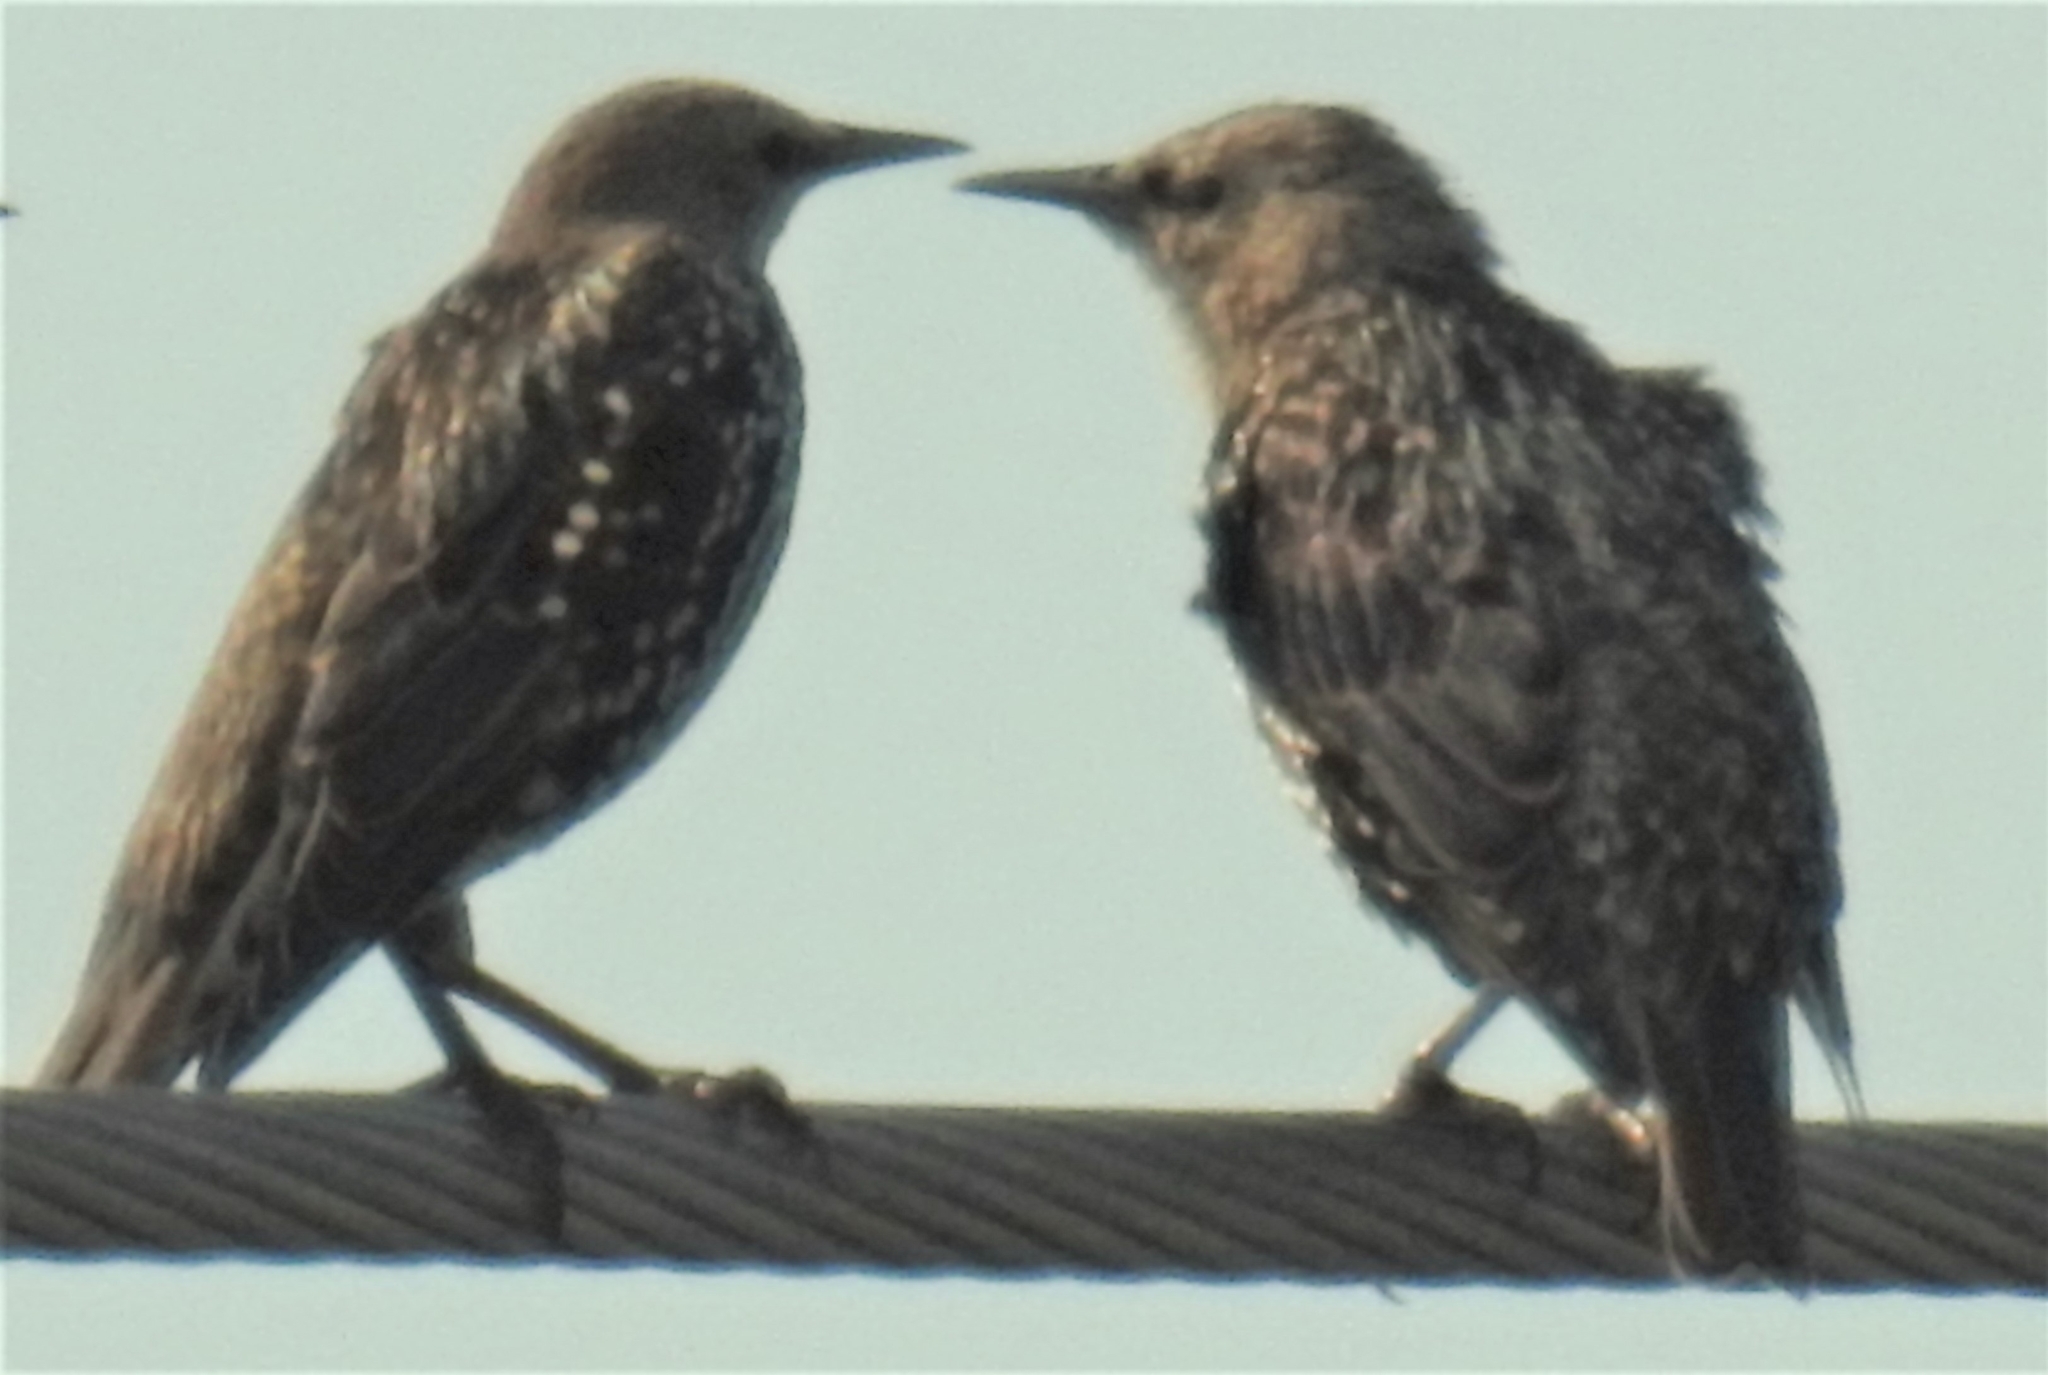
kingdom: Animalia
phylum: Chordata
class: Aves
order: Passeriformes
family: Sturnidae
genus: Sturnus
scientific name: Sturnus vulgaris
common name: Common starling
